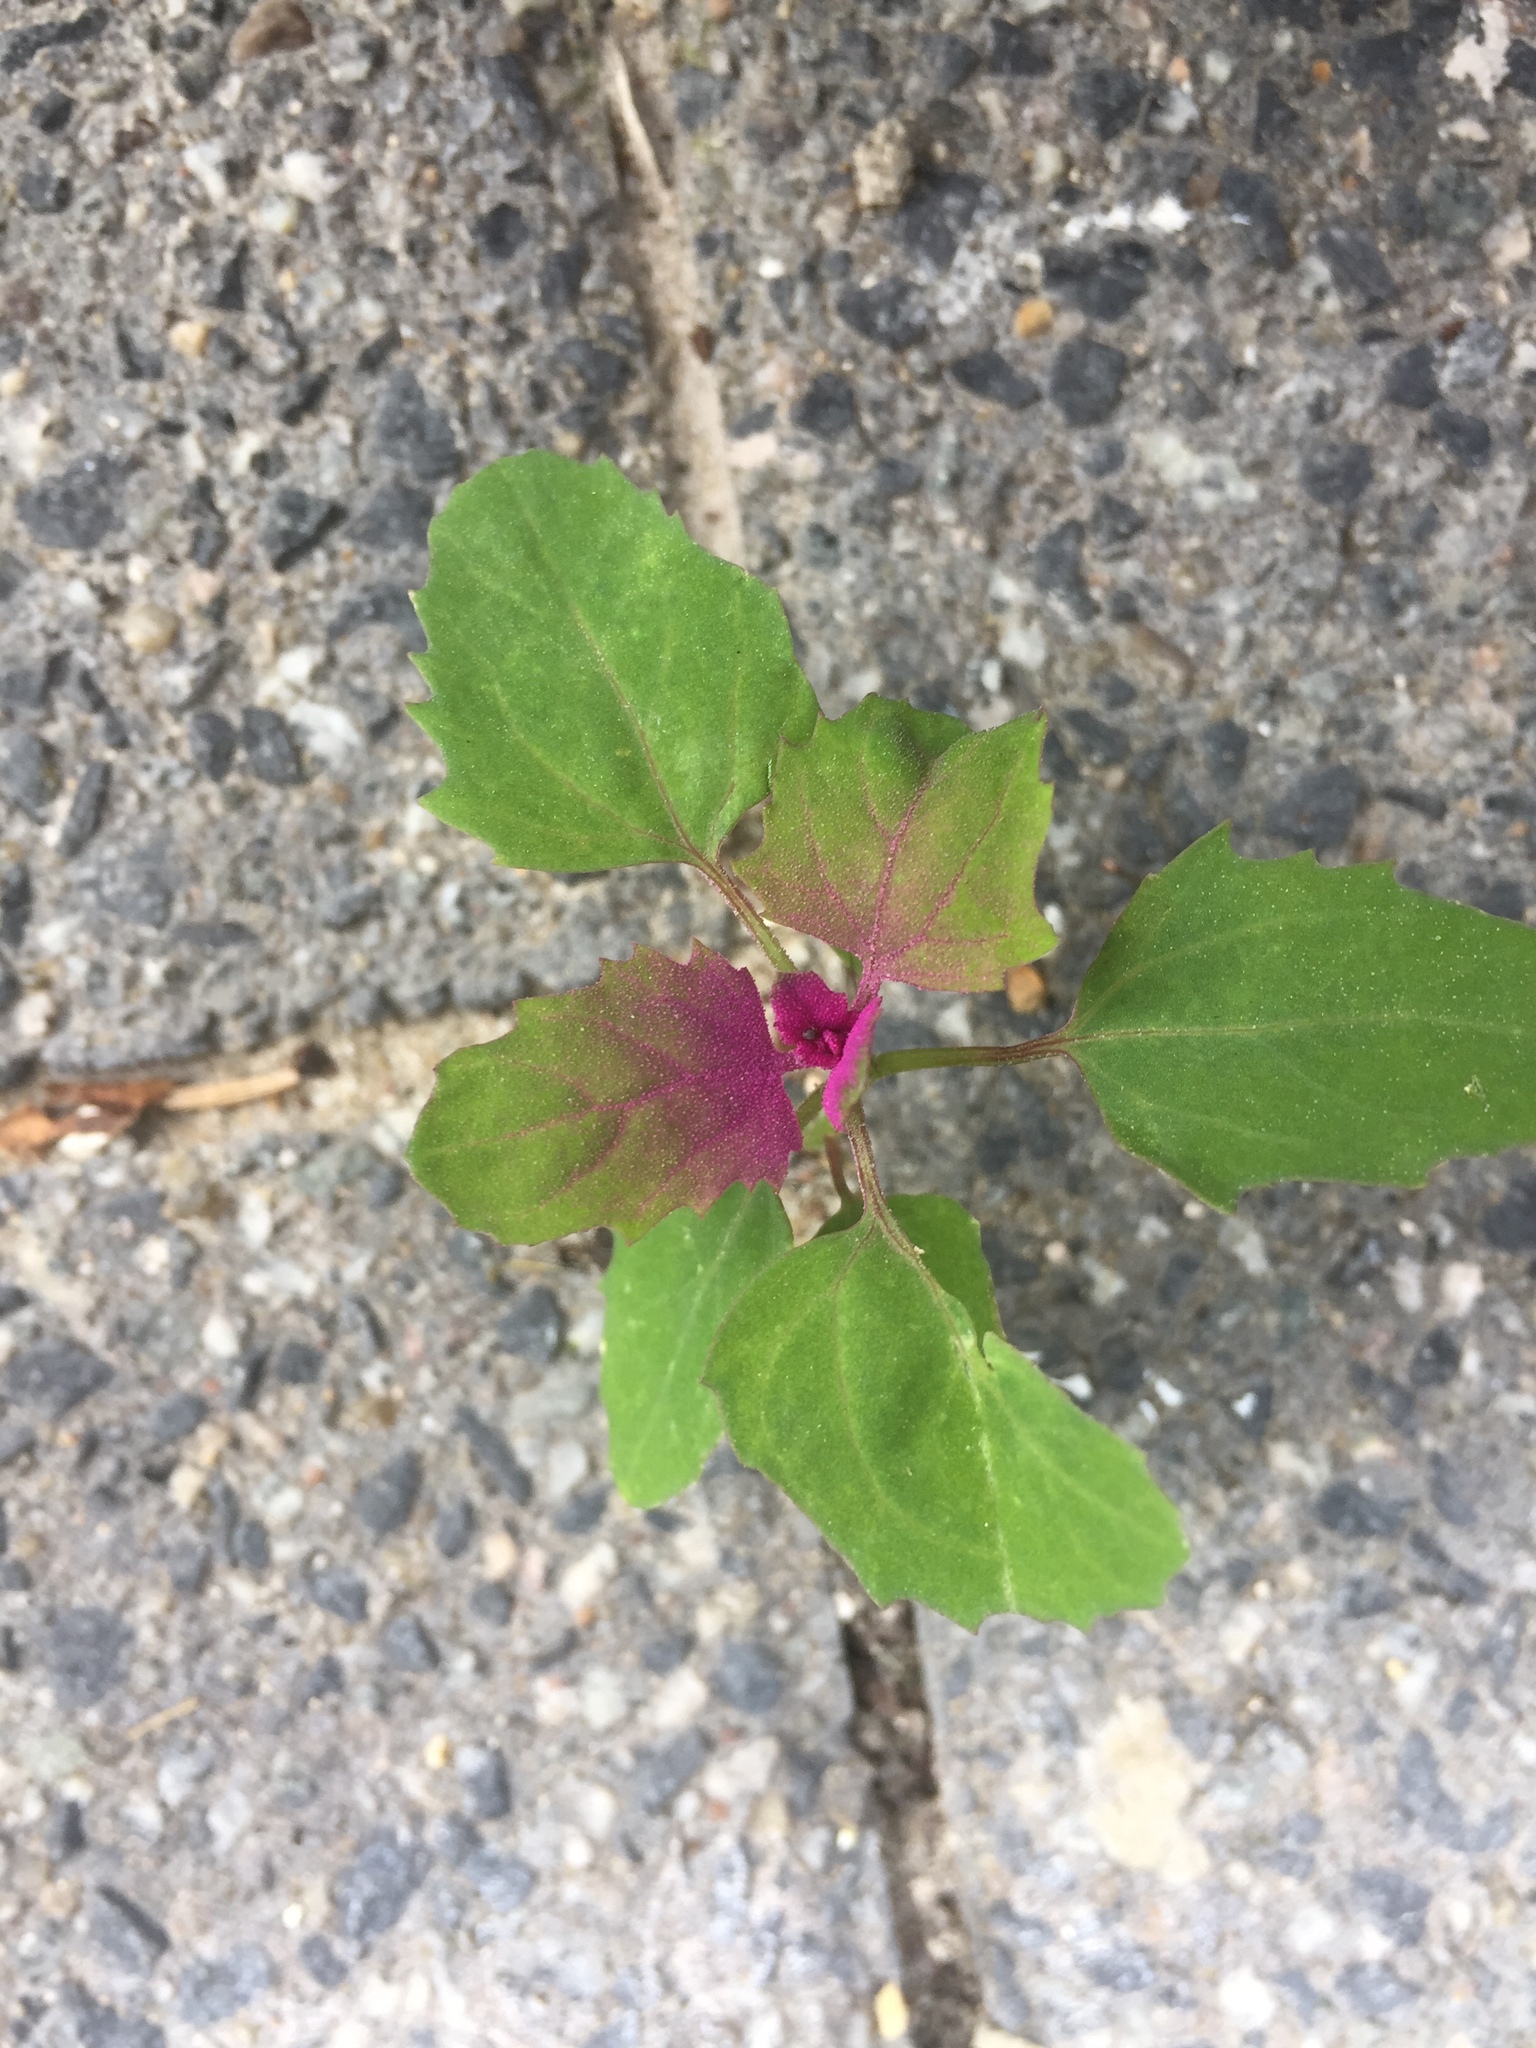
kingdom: Plantae
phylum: Tracheophyta
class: Magnoliopsida
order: Caryophyllales
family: Amaranthaceae
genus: Chenopodium
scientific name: Chenopodium giganteum
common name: Magentaspreen
